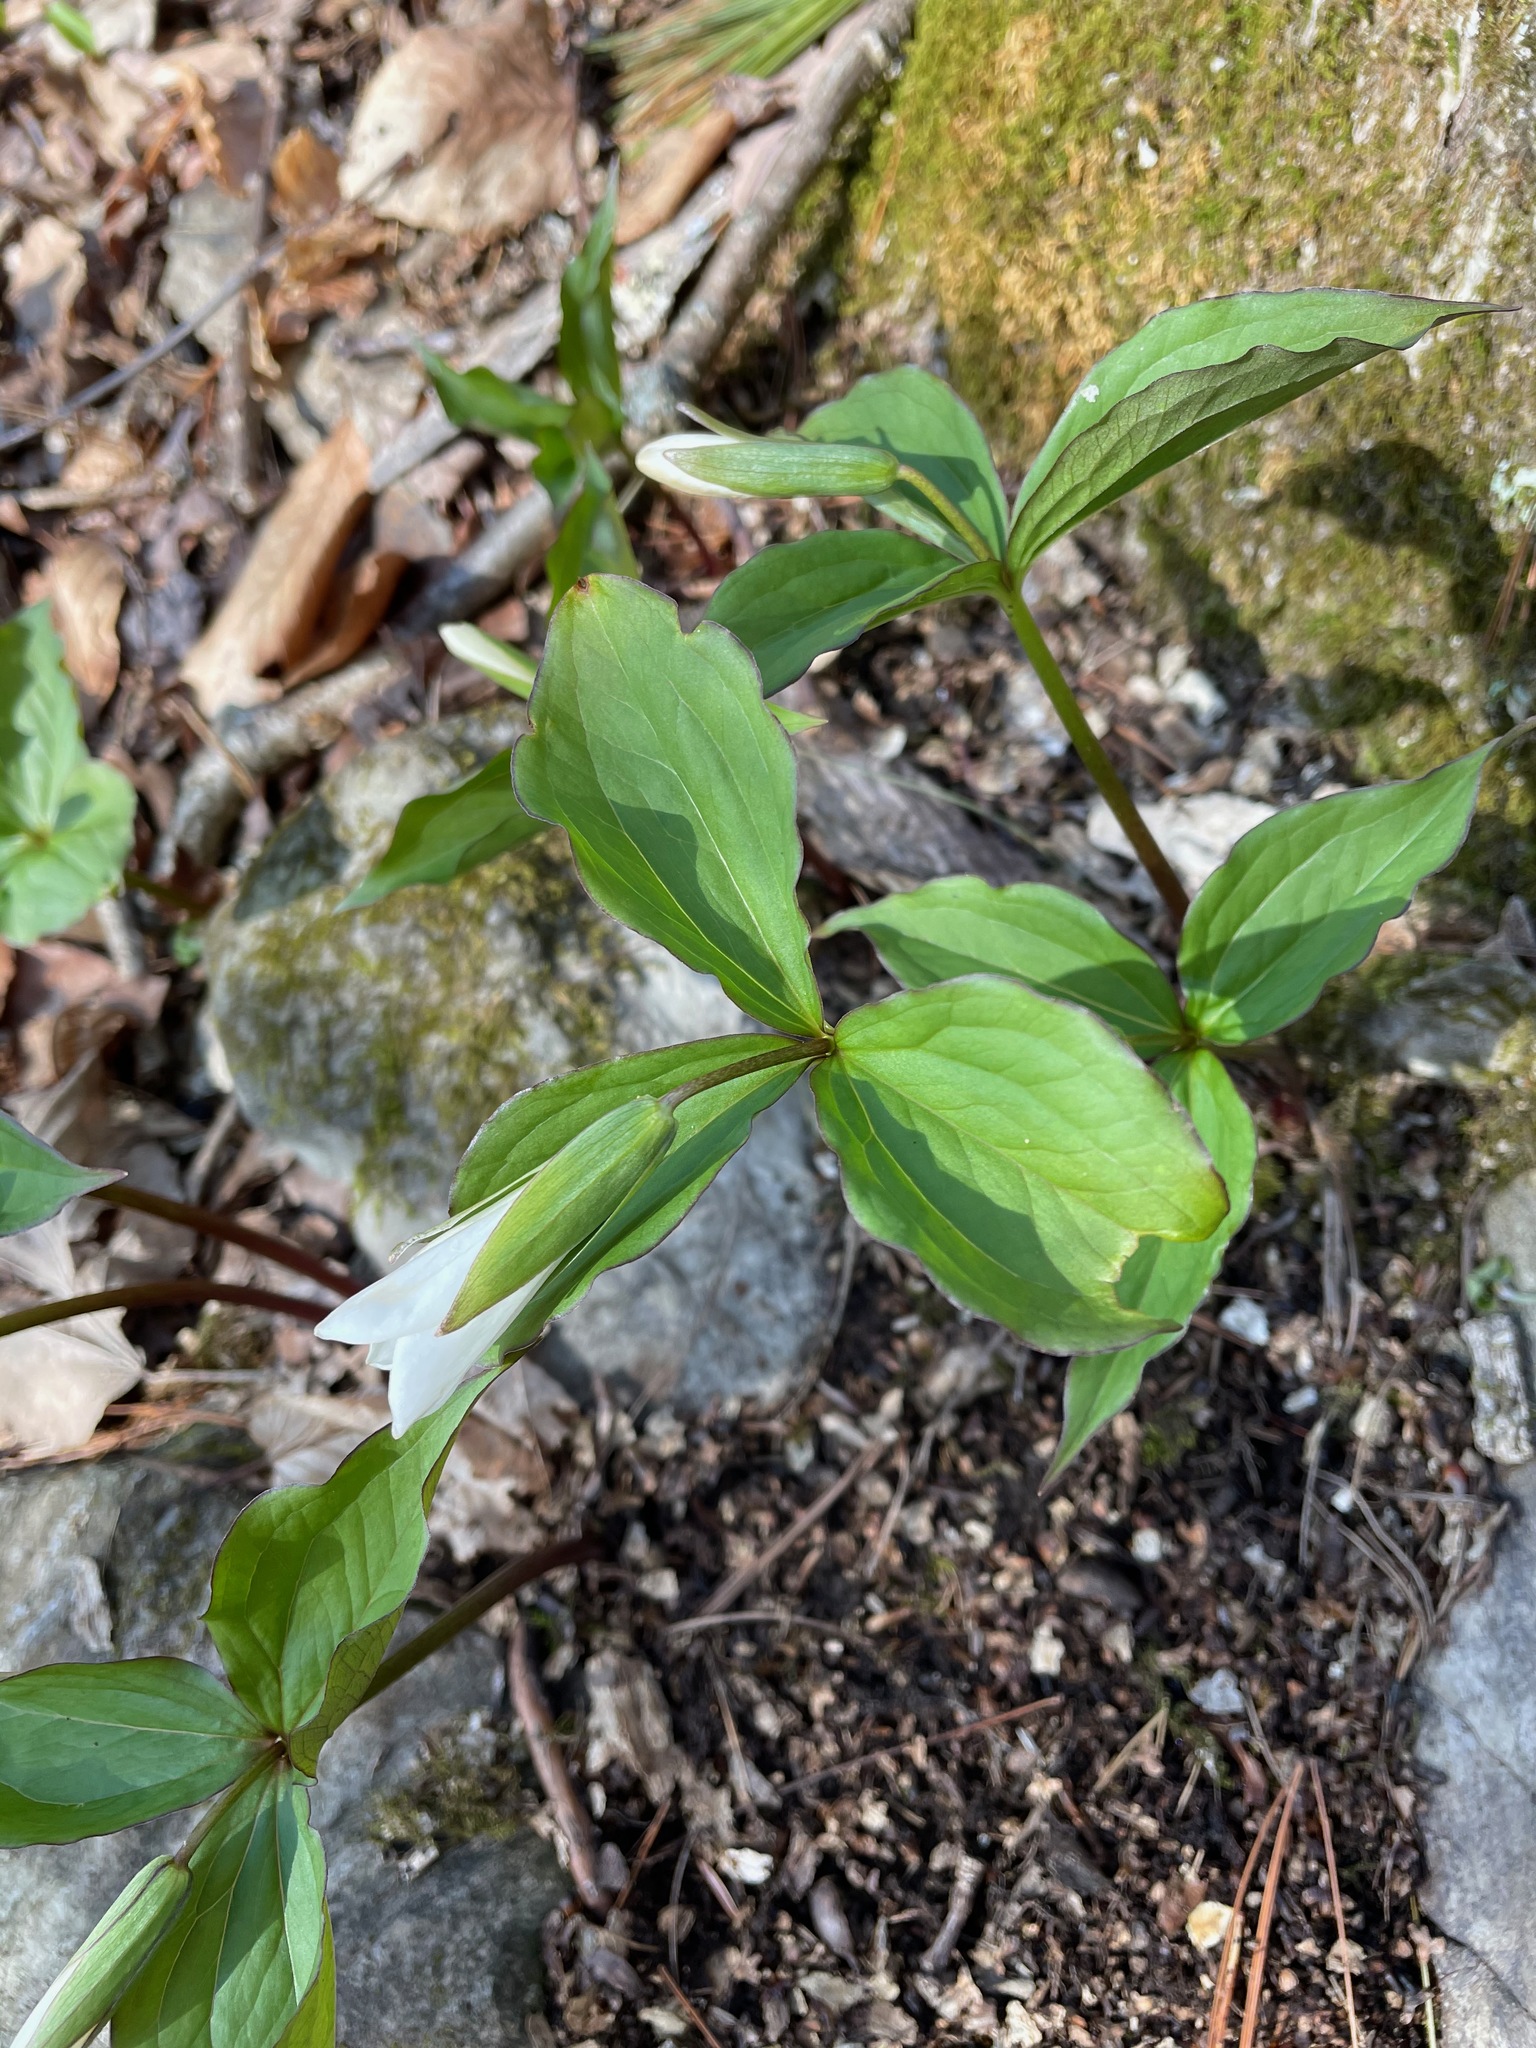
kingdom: Plantae
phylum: Tracheophyta
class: Liliopsida
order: Liliales
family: Melanthiaceae
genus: Trillium
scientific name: Trillium grandiflorum
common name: Great white trillium
